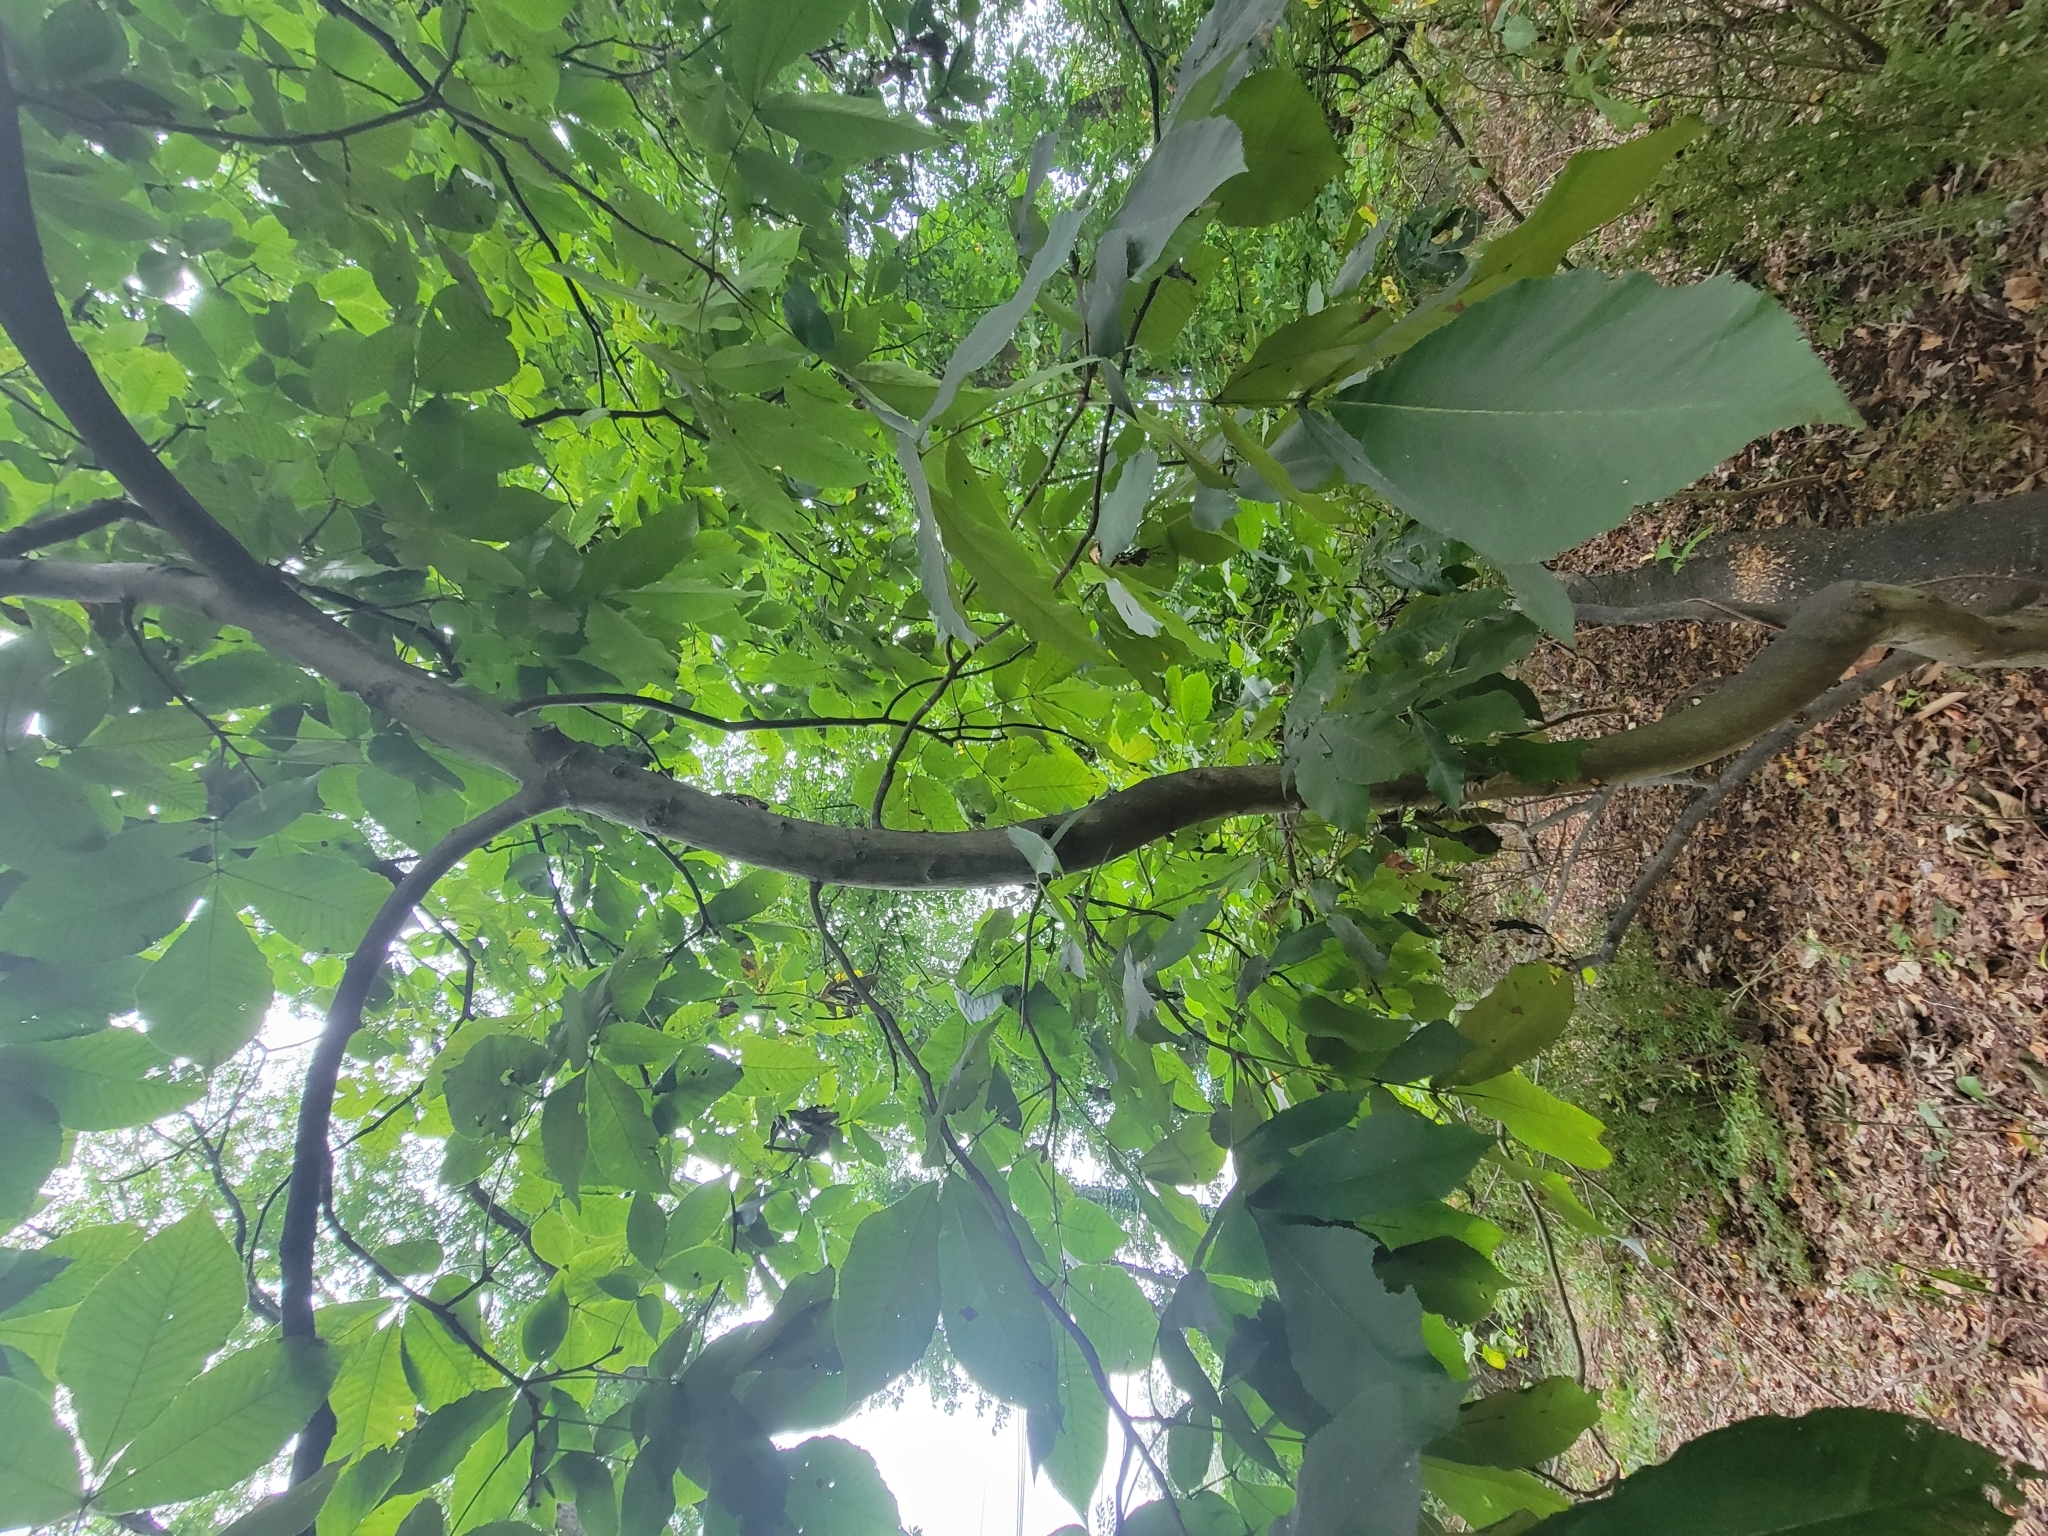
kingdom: Plantae
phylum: Tracheophyta
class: Magnoliopsida
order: Fagales
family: Juglandaceae
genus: Carya
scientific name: Carya ovata
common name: Shagbark hickory
